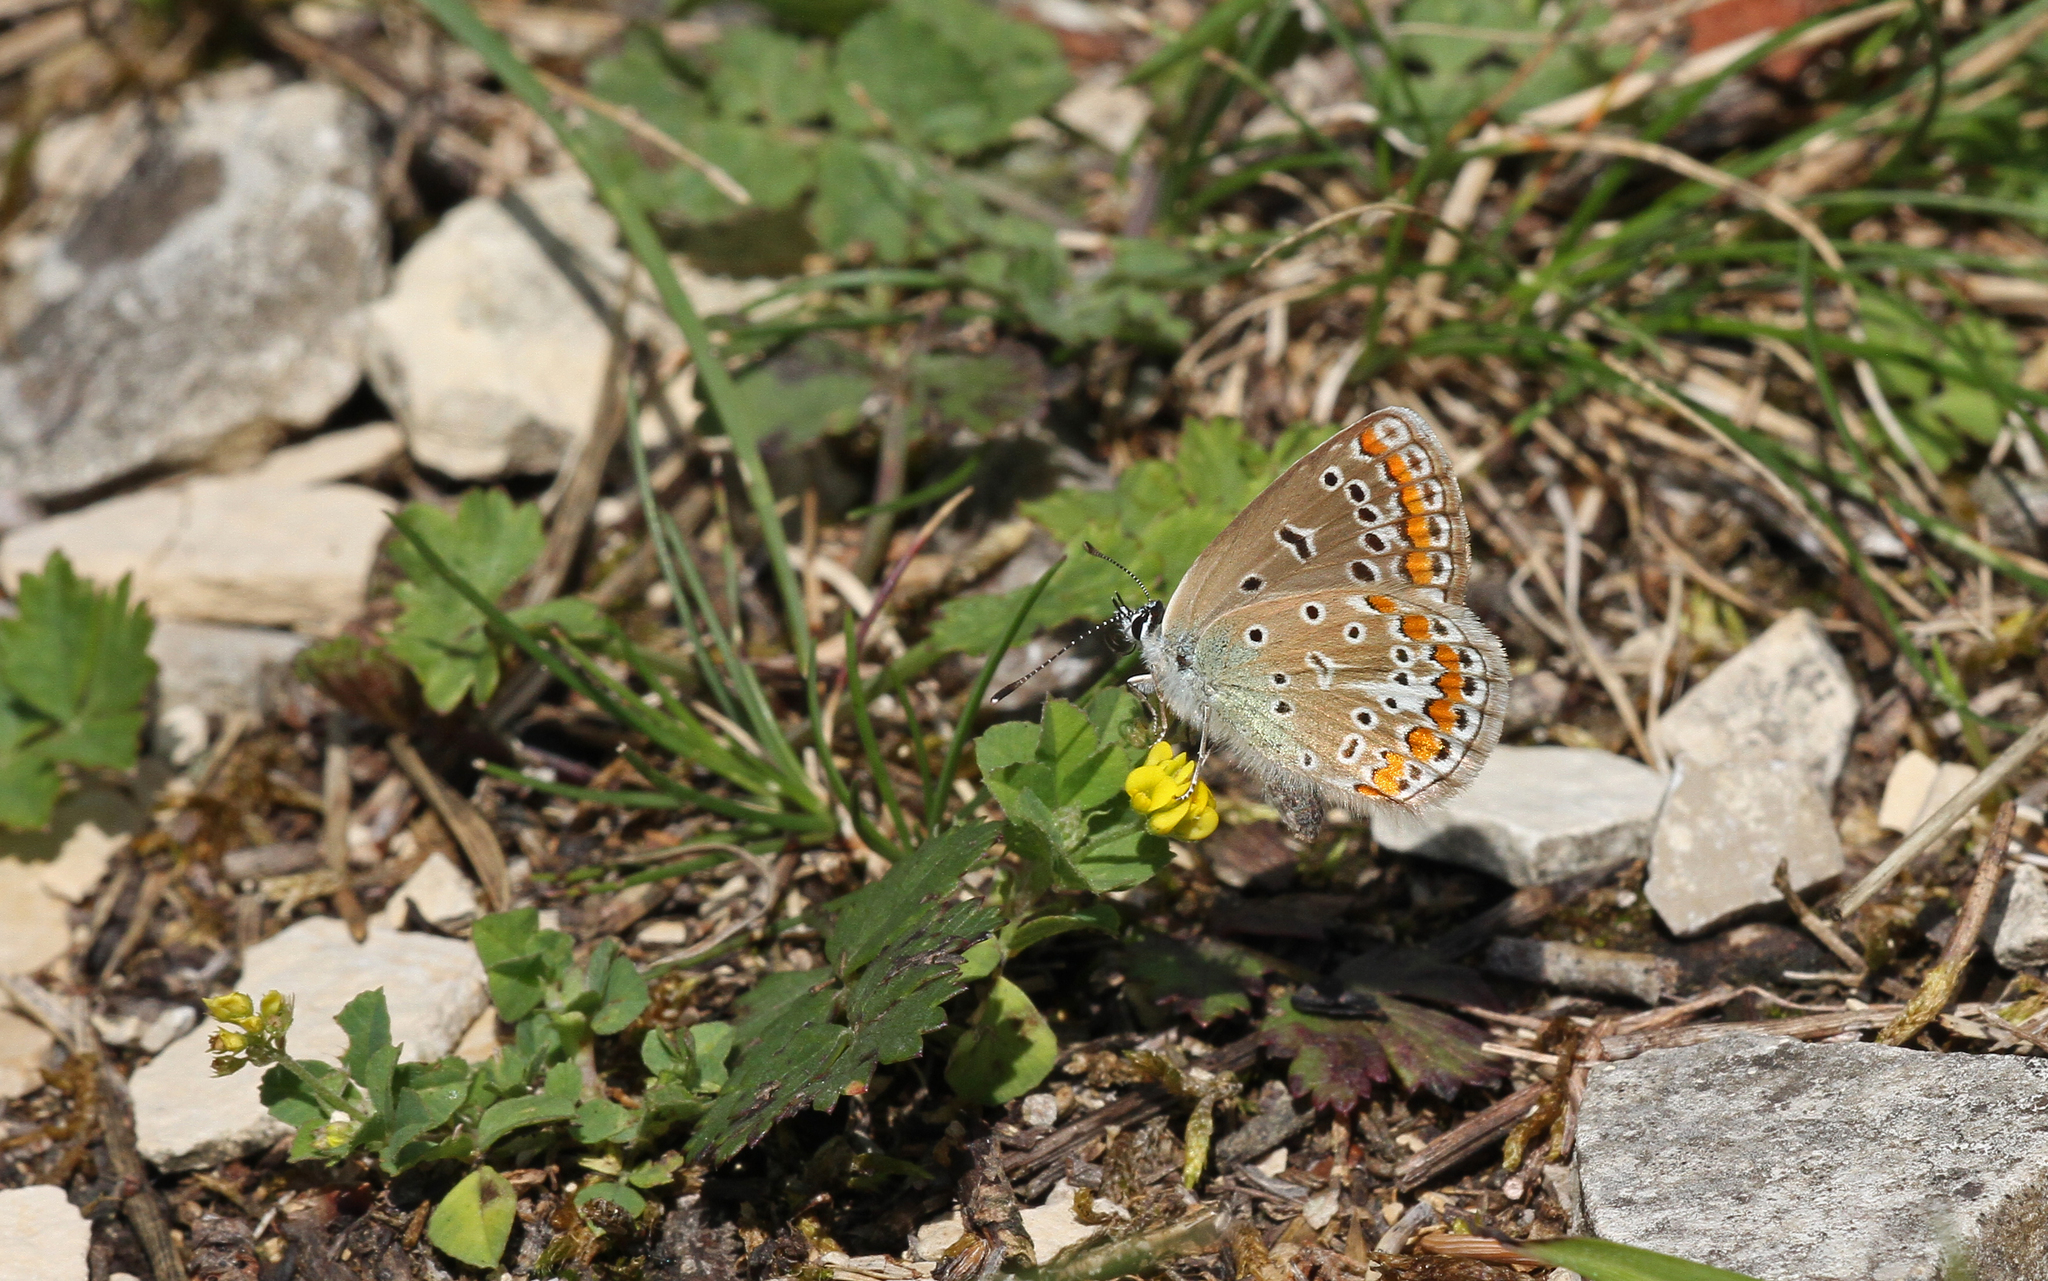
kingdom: Animalia
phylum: Arthropoda
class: Insecta
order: Lepidoptera
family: Lycaenidae
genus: Polyommatus
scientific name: Polyommatus icarus
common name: Common blue
